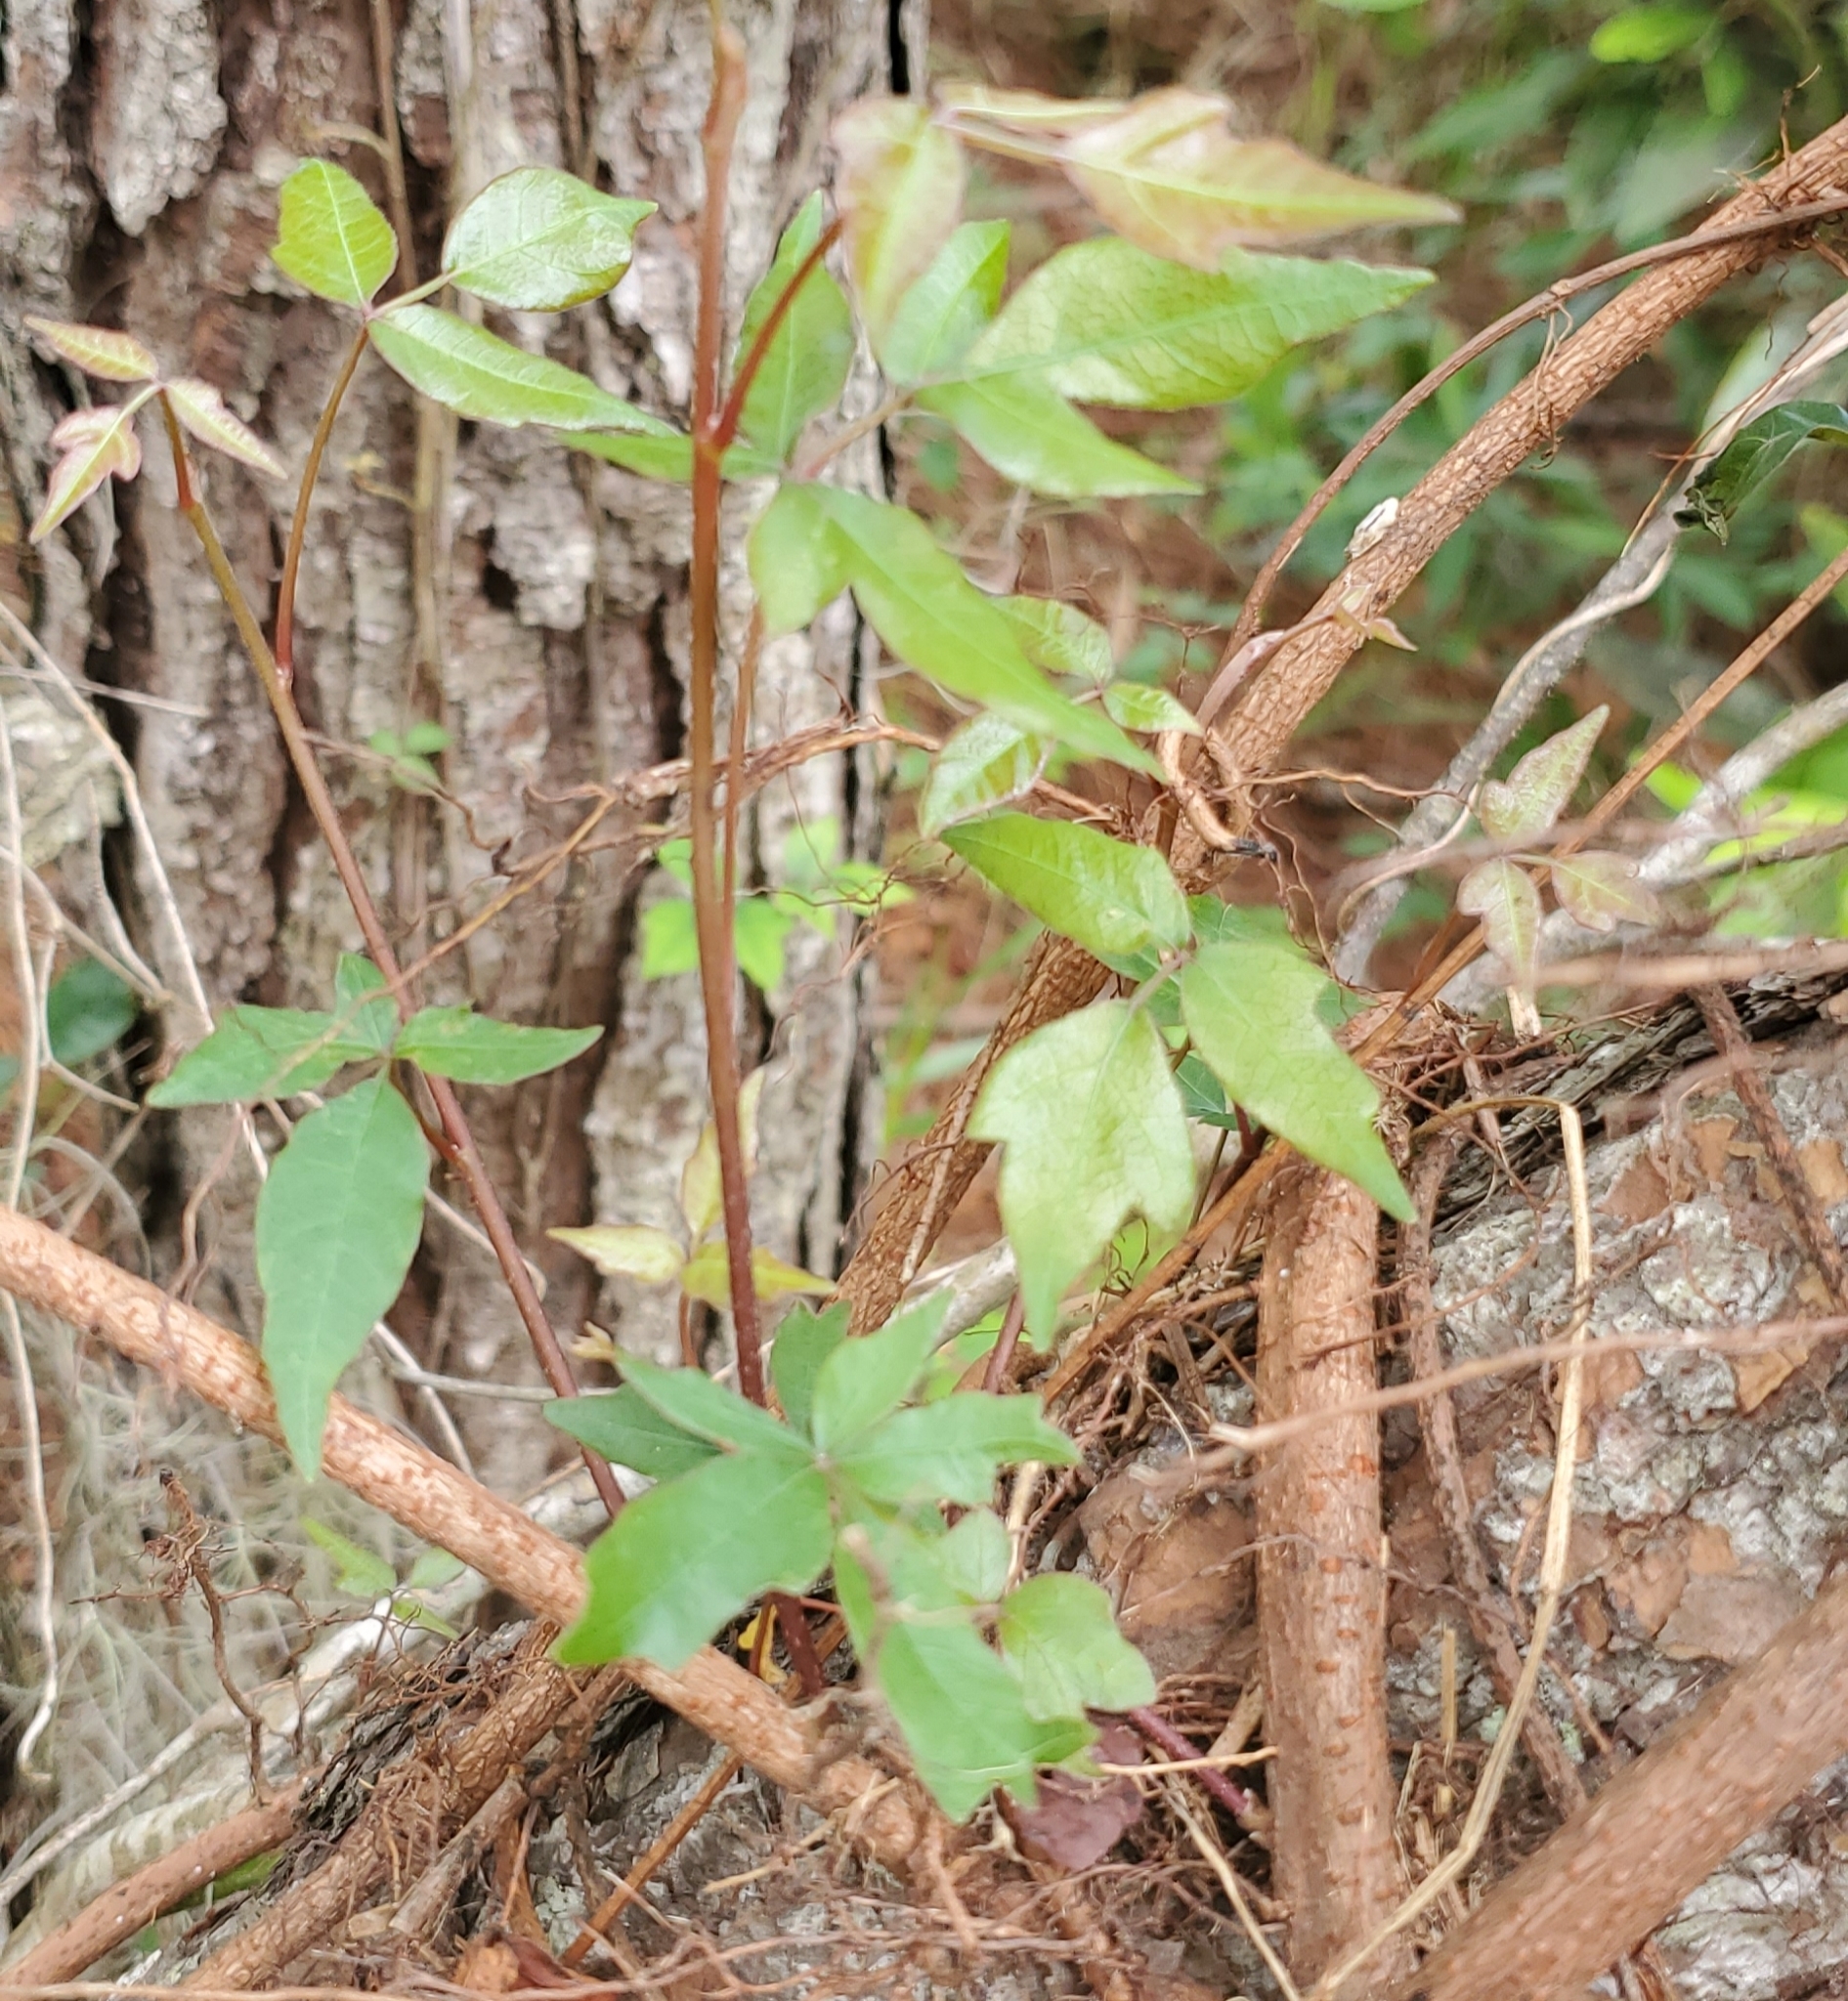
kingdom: Plantae
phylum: Tracheophyta
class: Magnoliopsida
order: Sapindales
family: Anacardiaceae
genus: Toxicodendron
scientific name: Toxicodendron radicans
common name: Poison ivy
